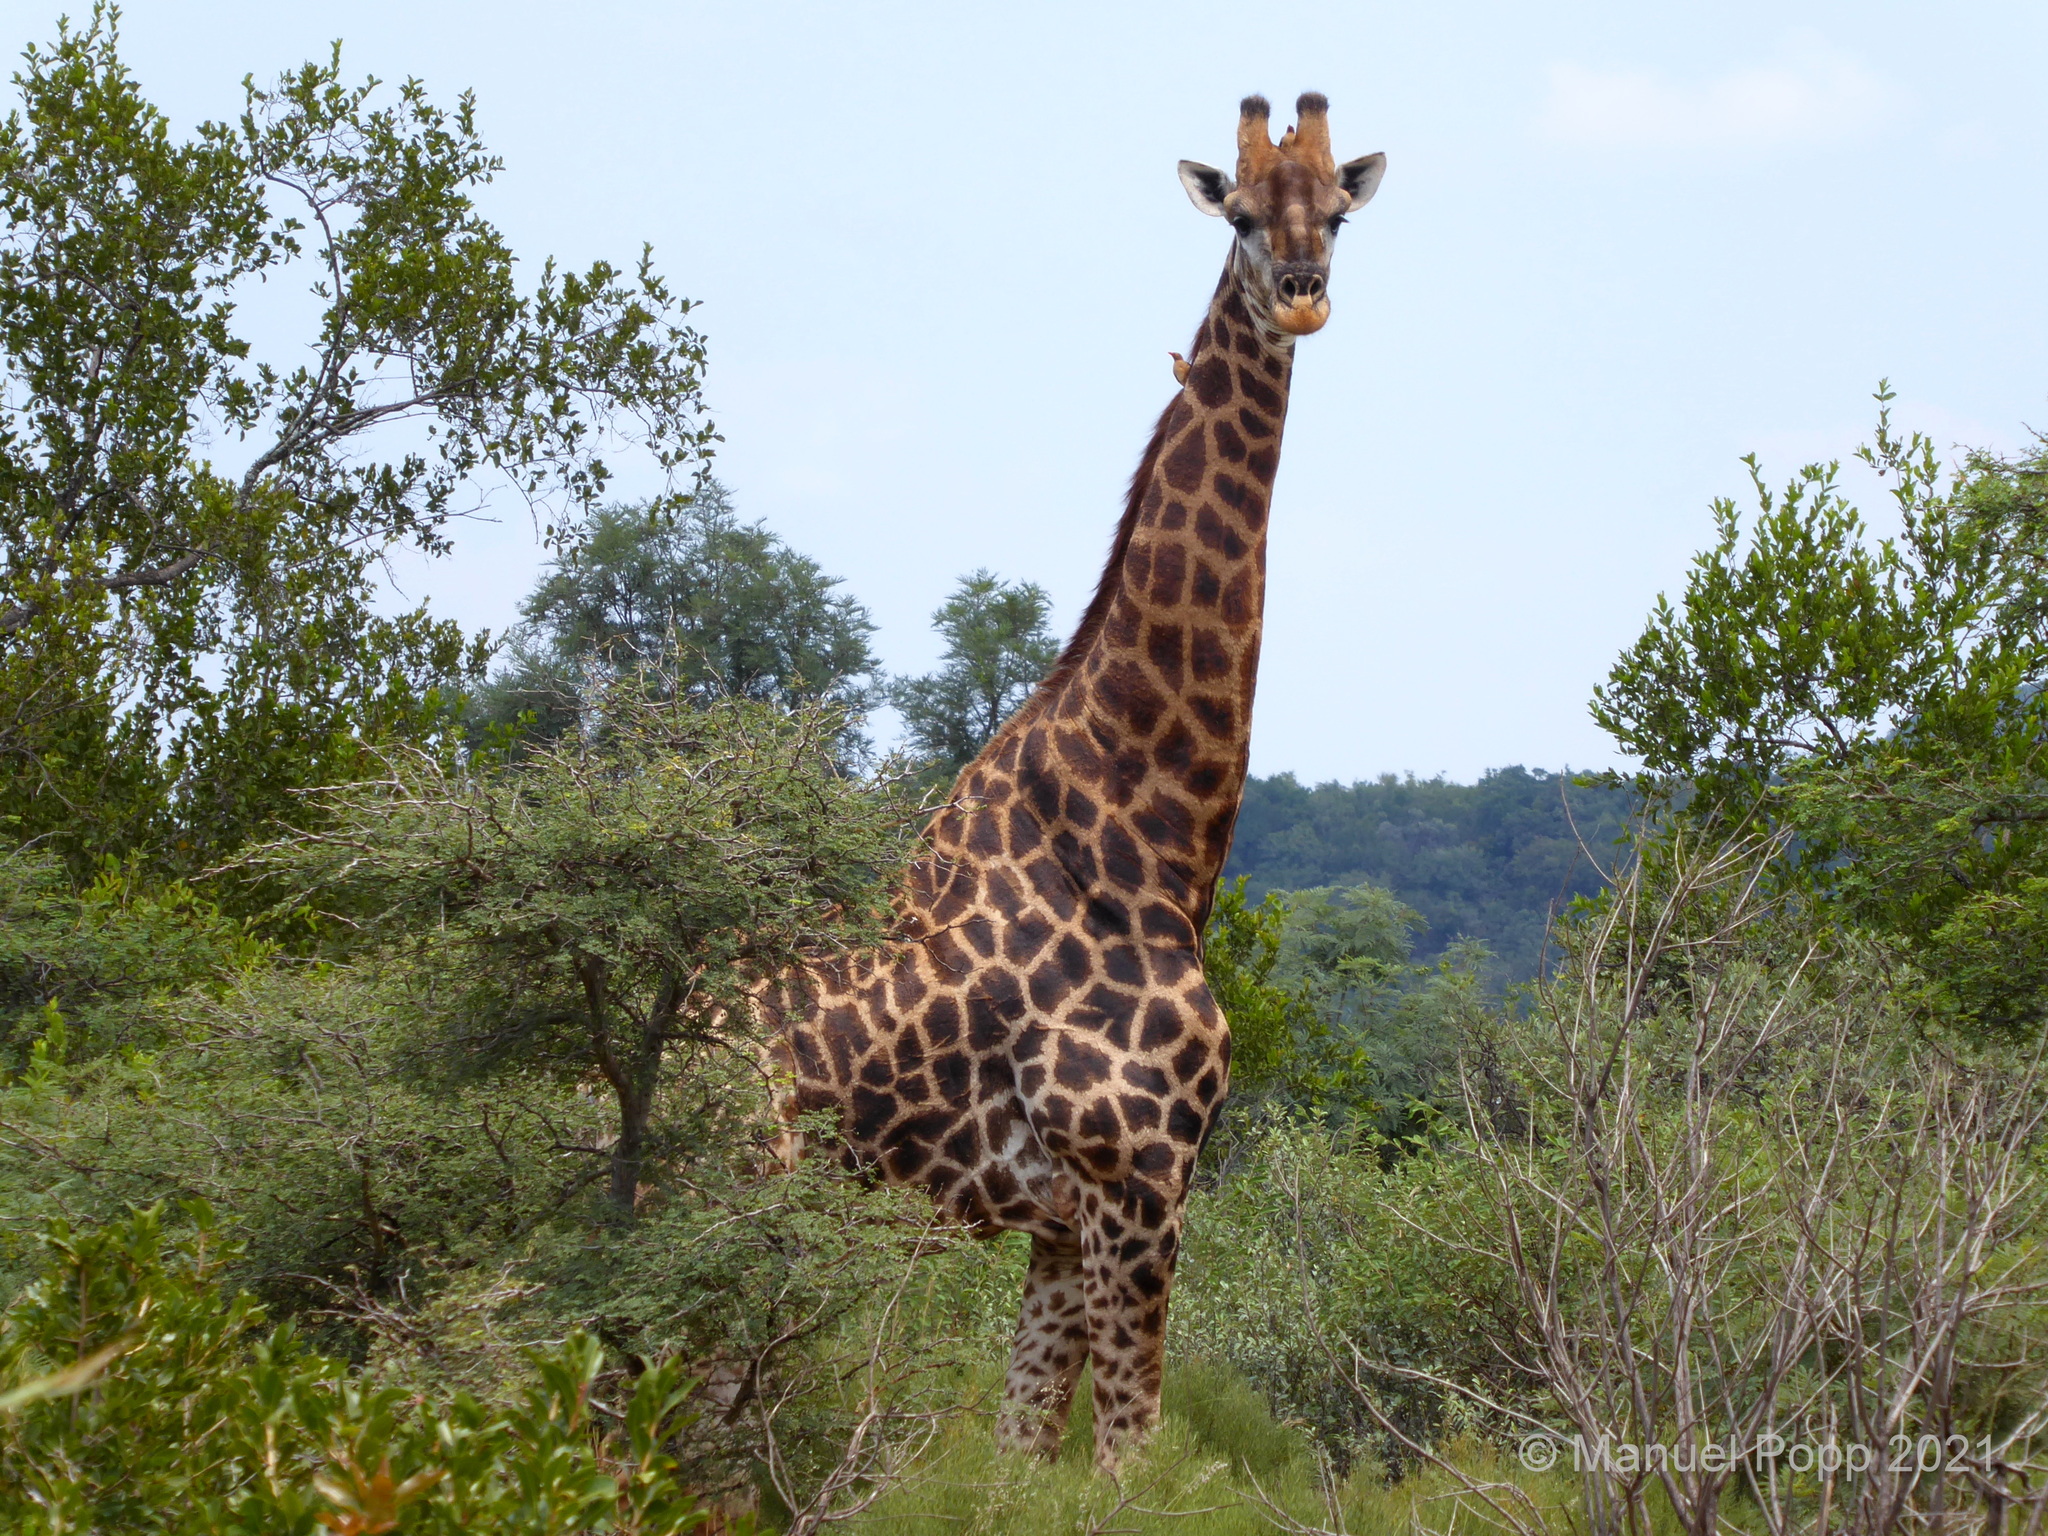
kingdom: Animalia
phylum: Chordata
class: Mammalia
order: Artiodactyla
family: Giraffidae
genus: Giraffa
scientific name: Giraffa giraffa
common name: Southern giraffe
